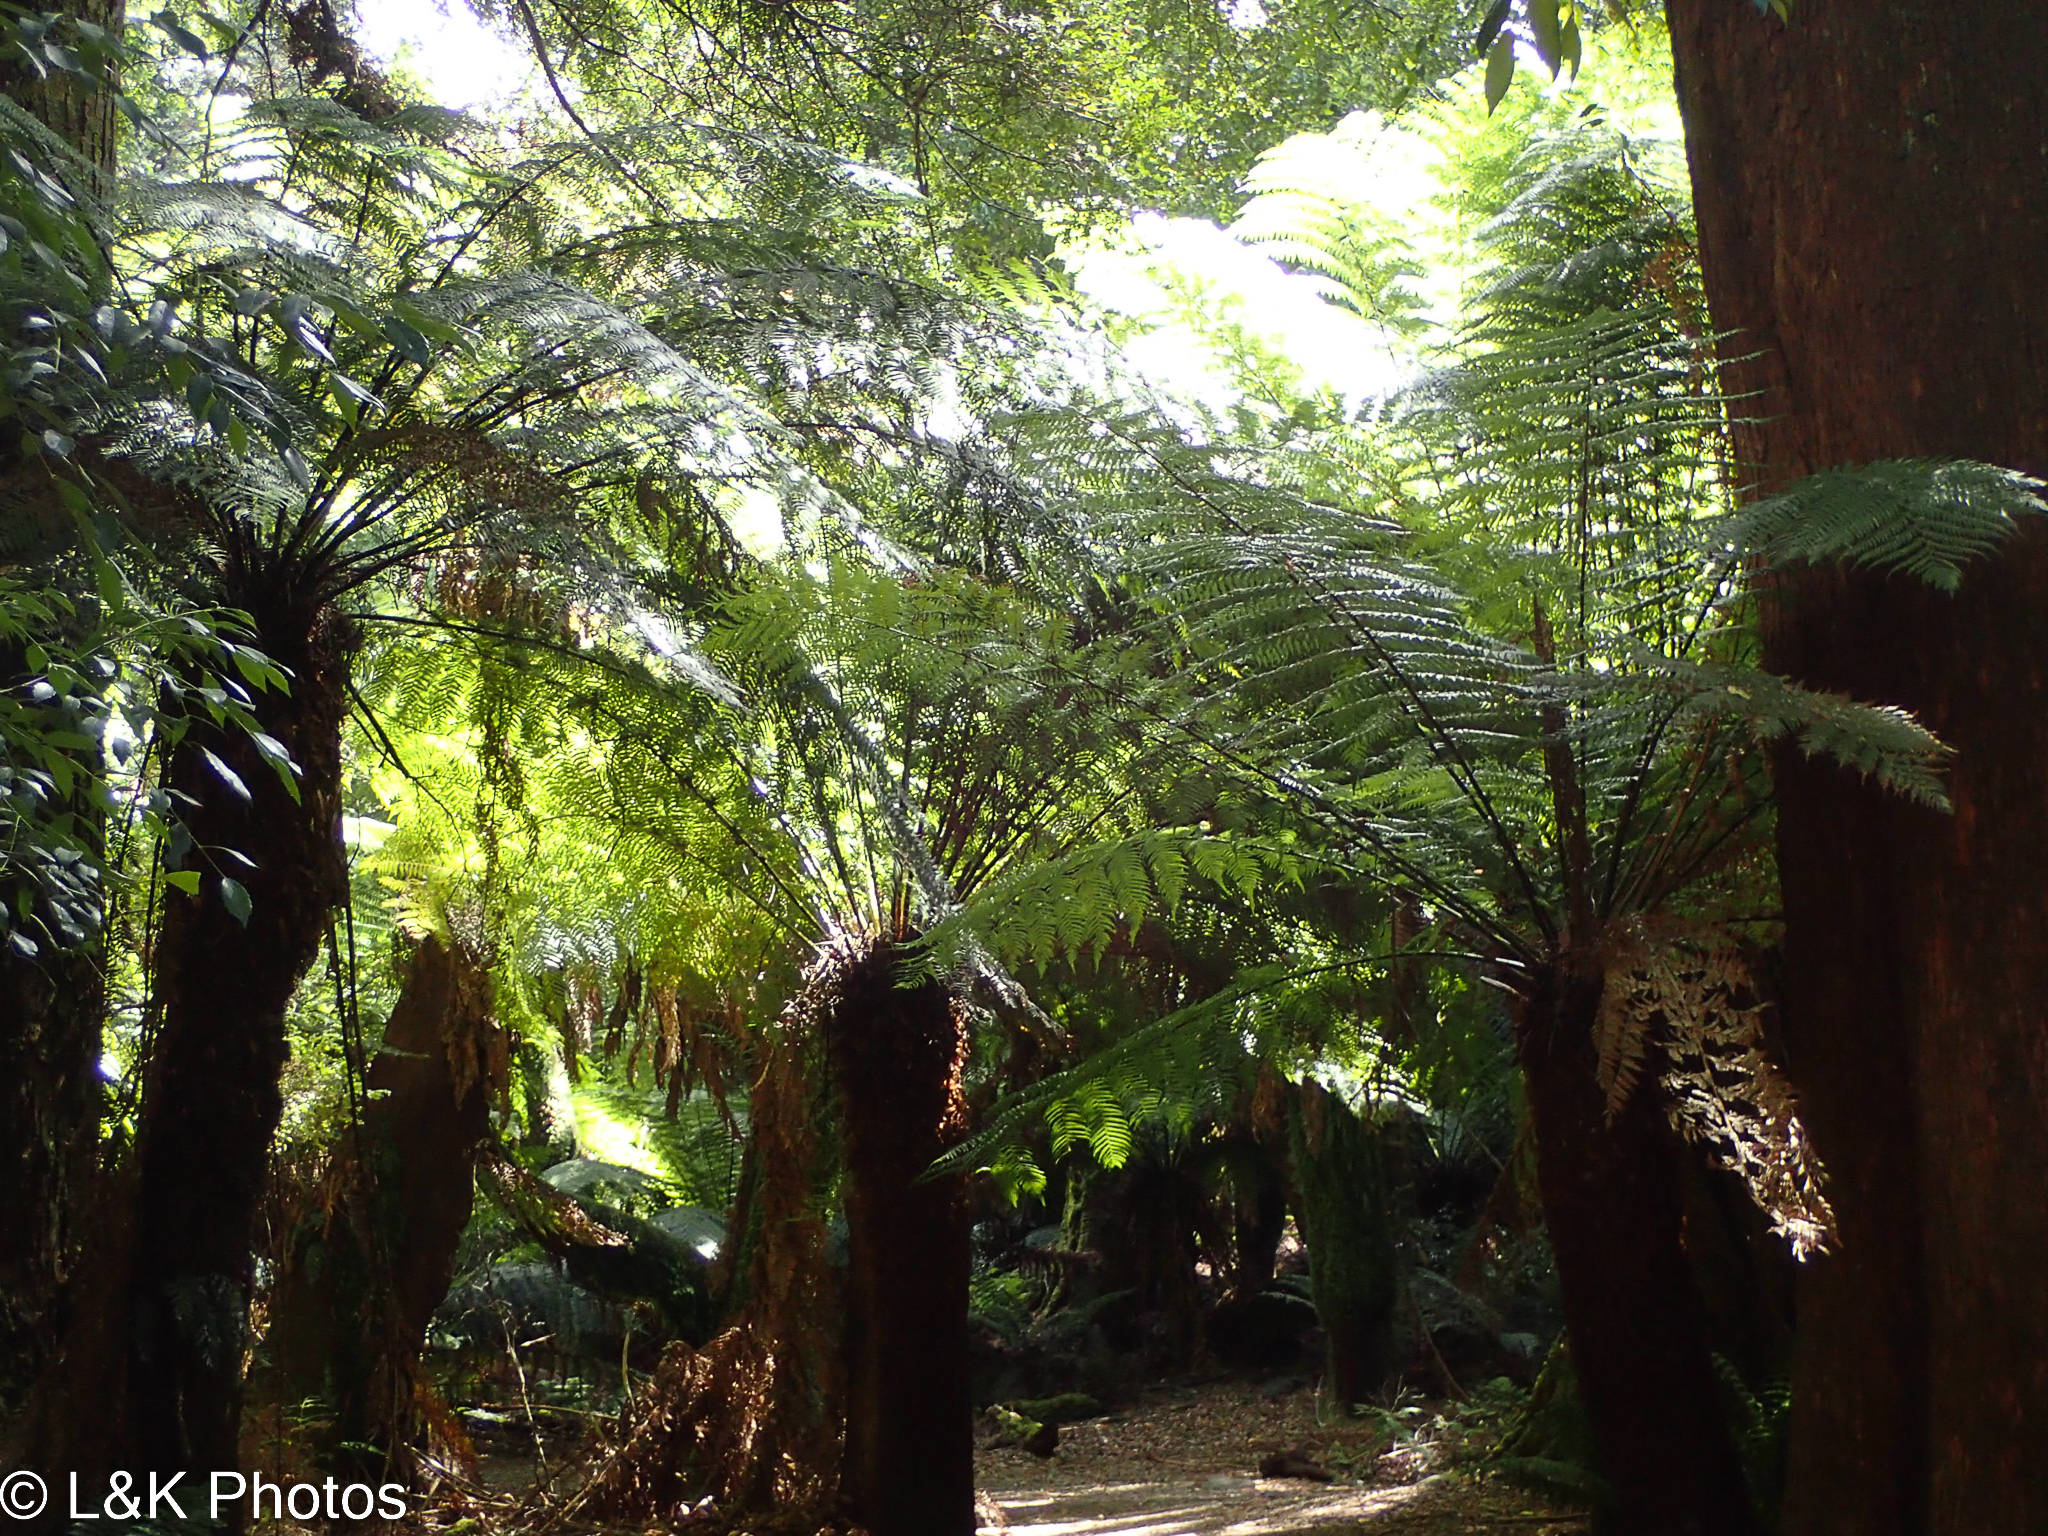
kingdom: Plantae
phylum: Tracheophyta
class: Polypodiopsida
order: Cyatheales
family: Dicksoniaceae
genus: Dicksonia
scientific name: Dicksonia antarctica
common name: Australian treefern
